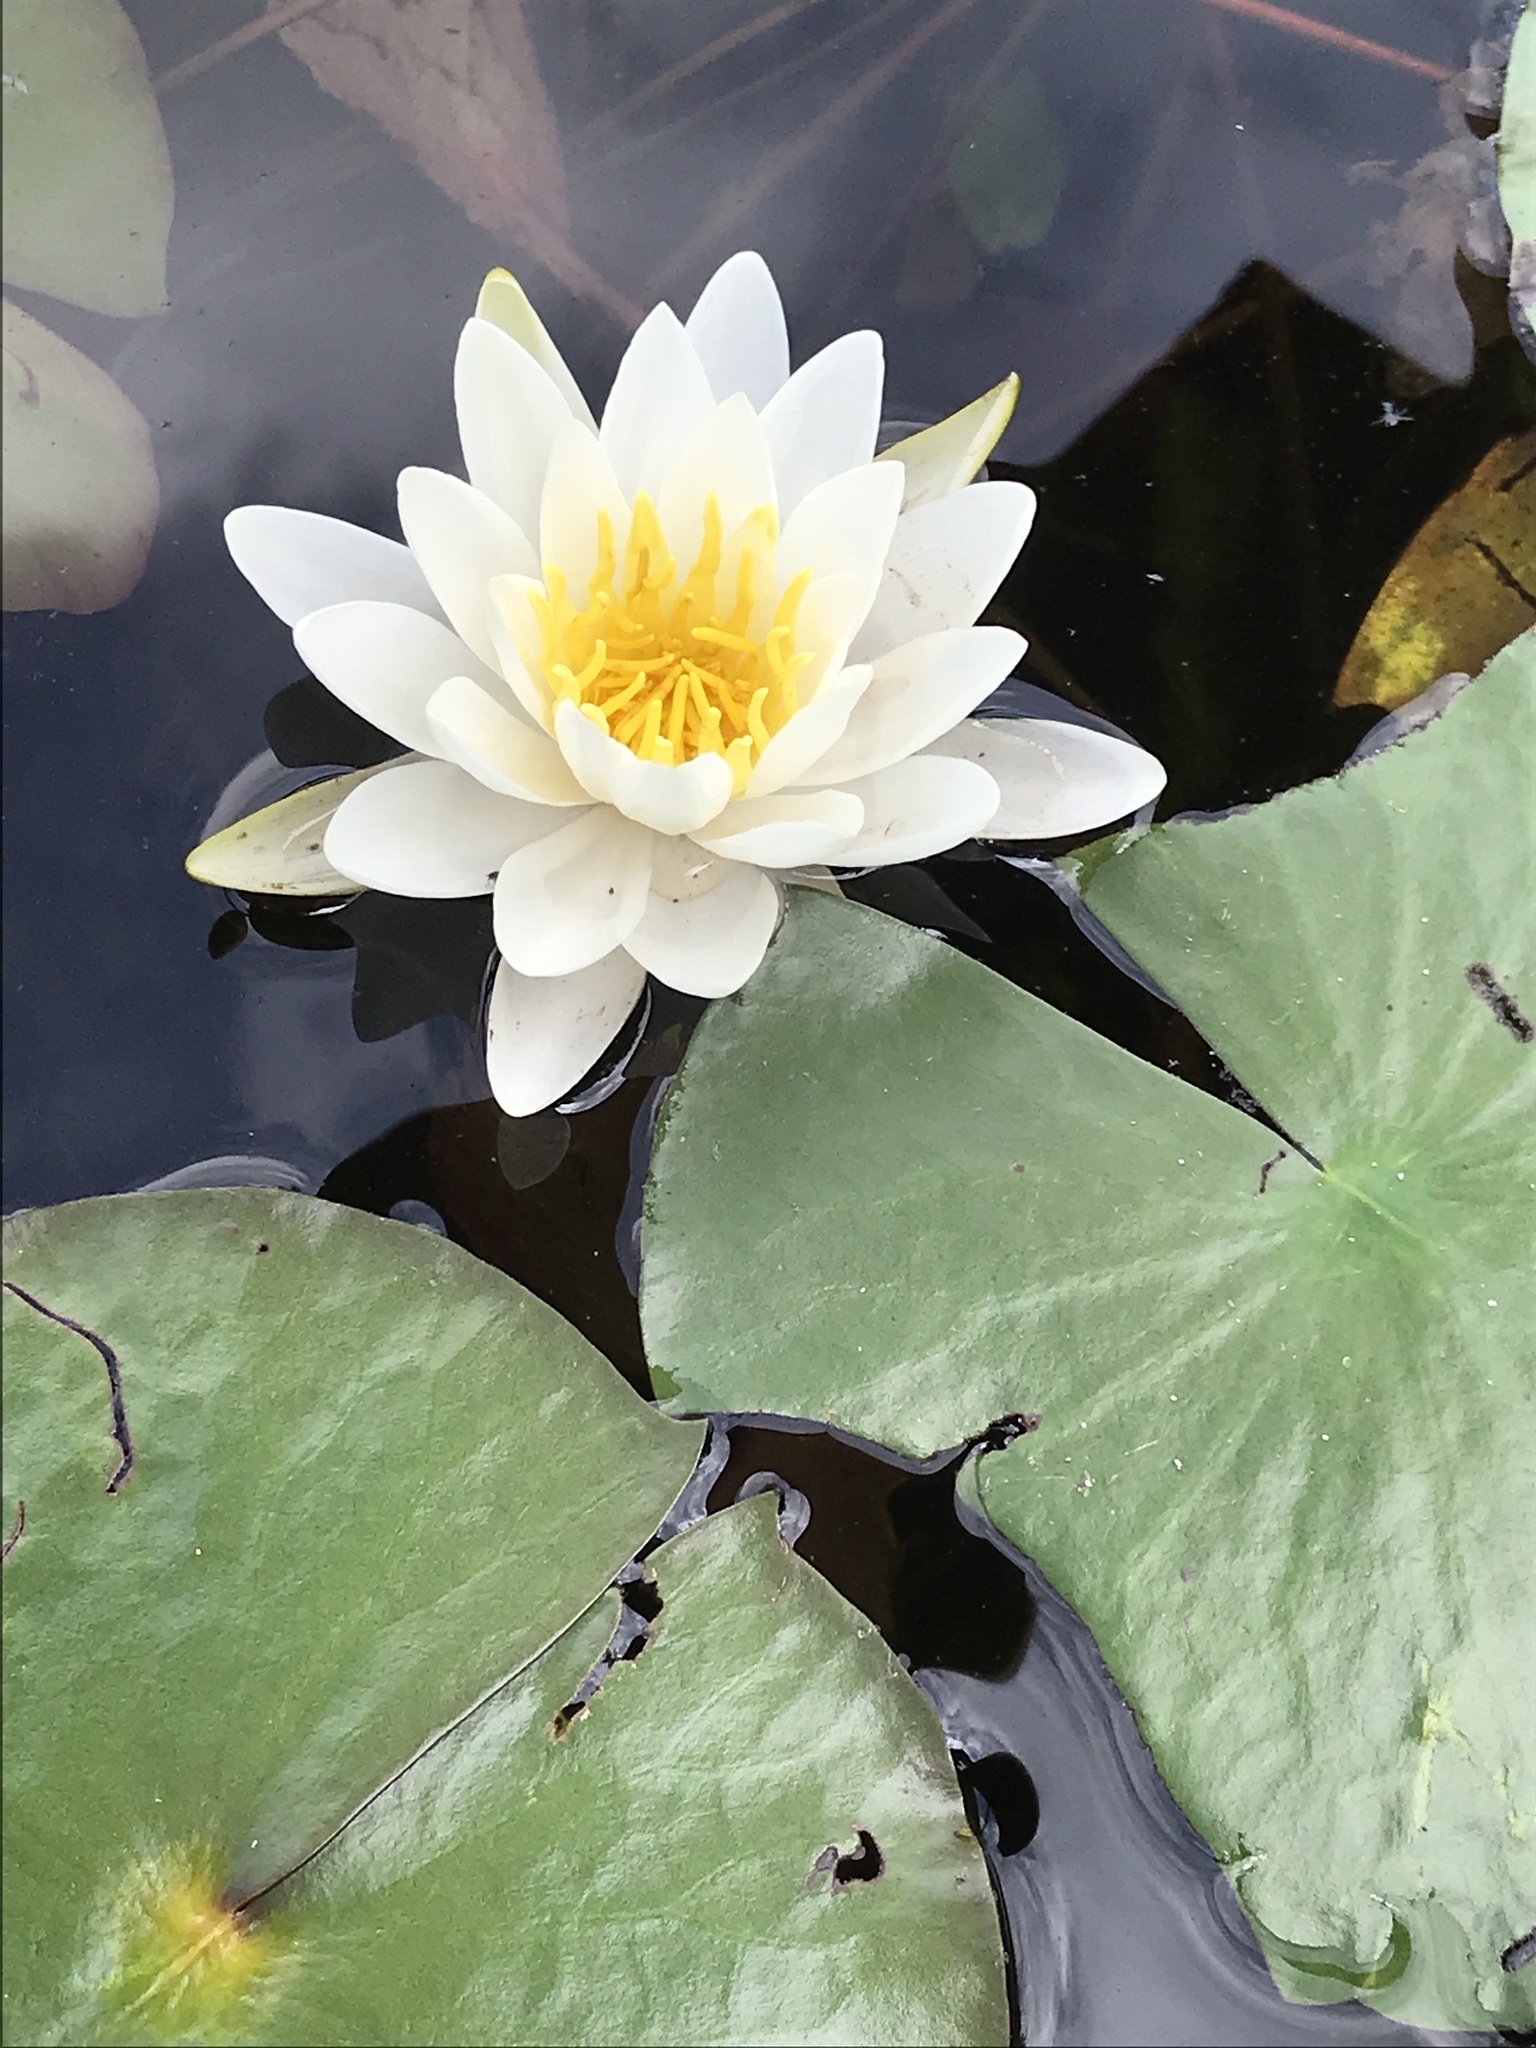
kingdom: Plantae
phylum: Tracheophyta
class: Magnoliopsida
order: Nymphaeales
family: Nymphaeaceae
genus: Nymphaea
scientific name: Nymphaea odorata
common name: Fragrant water-lily
